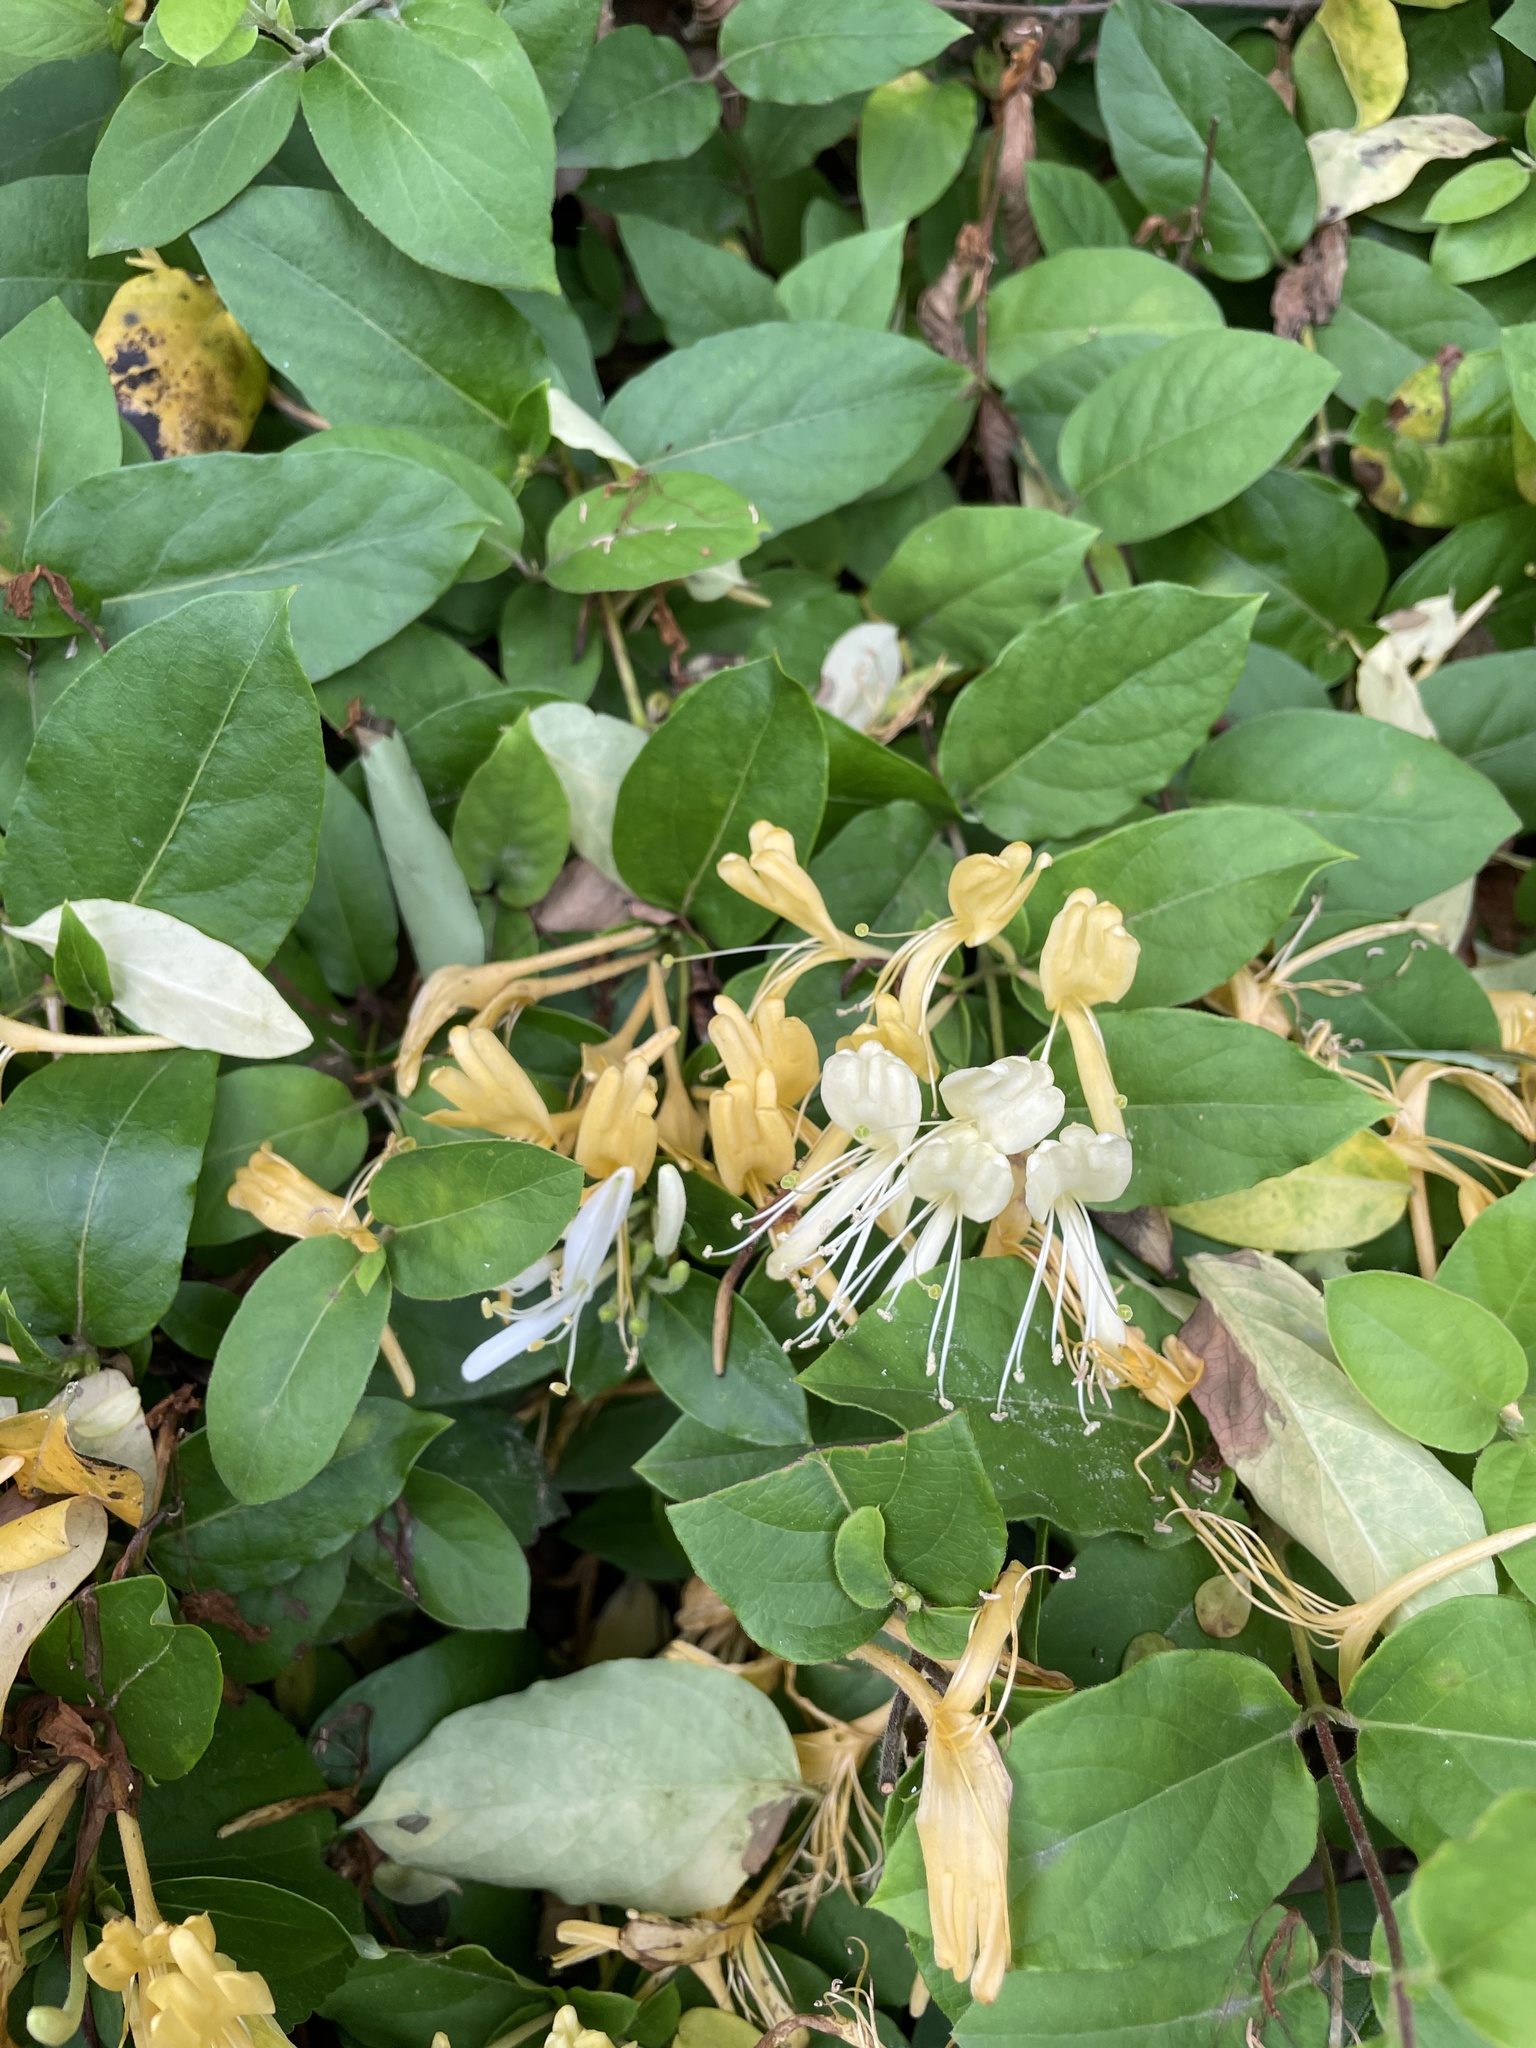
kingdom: Plantae
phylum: Tracheophyta
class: Magnoliopsida
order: Dipsacales
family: Caprifoliaceae
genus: Lonicera
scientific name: Lonicera japonica
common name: Japanese honeysuckle
